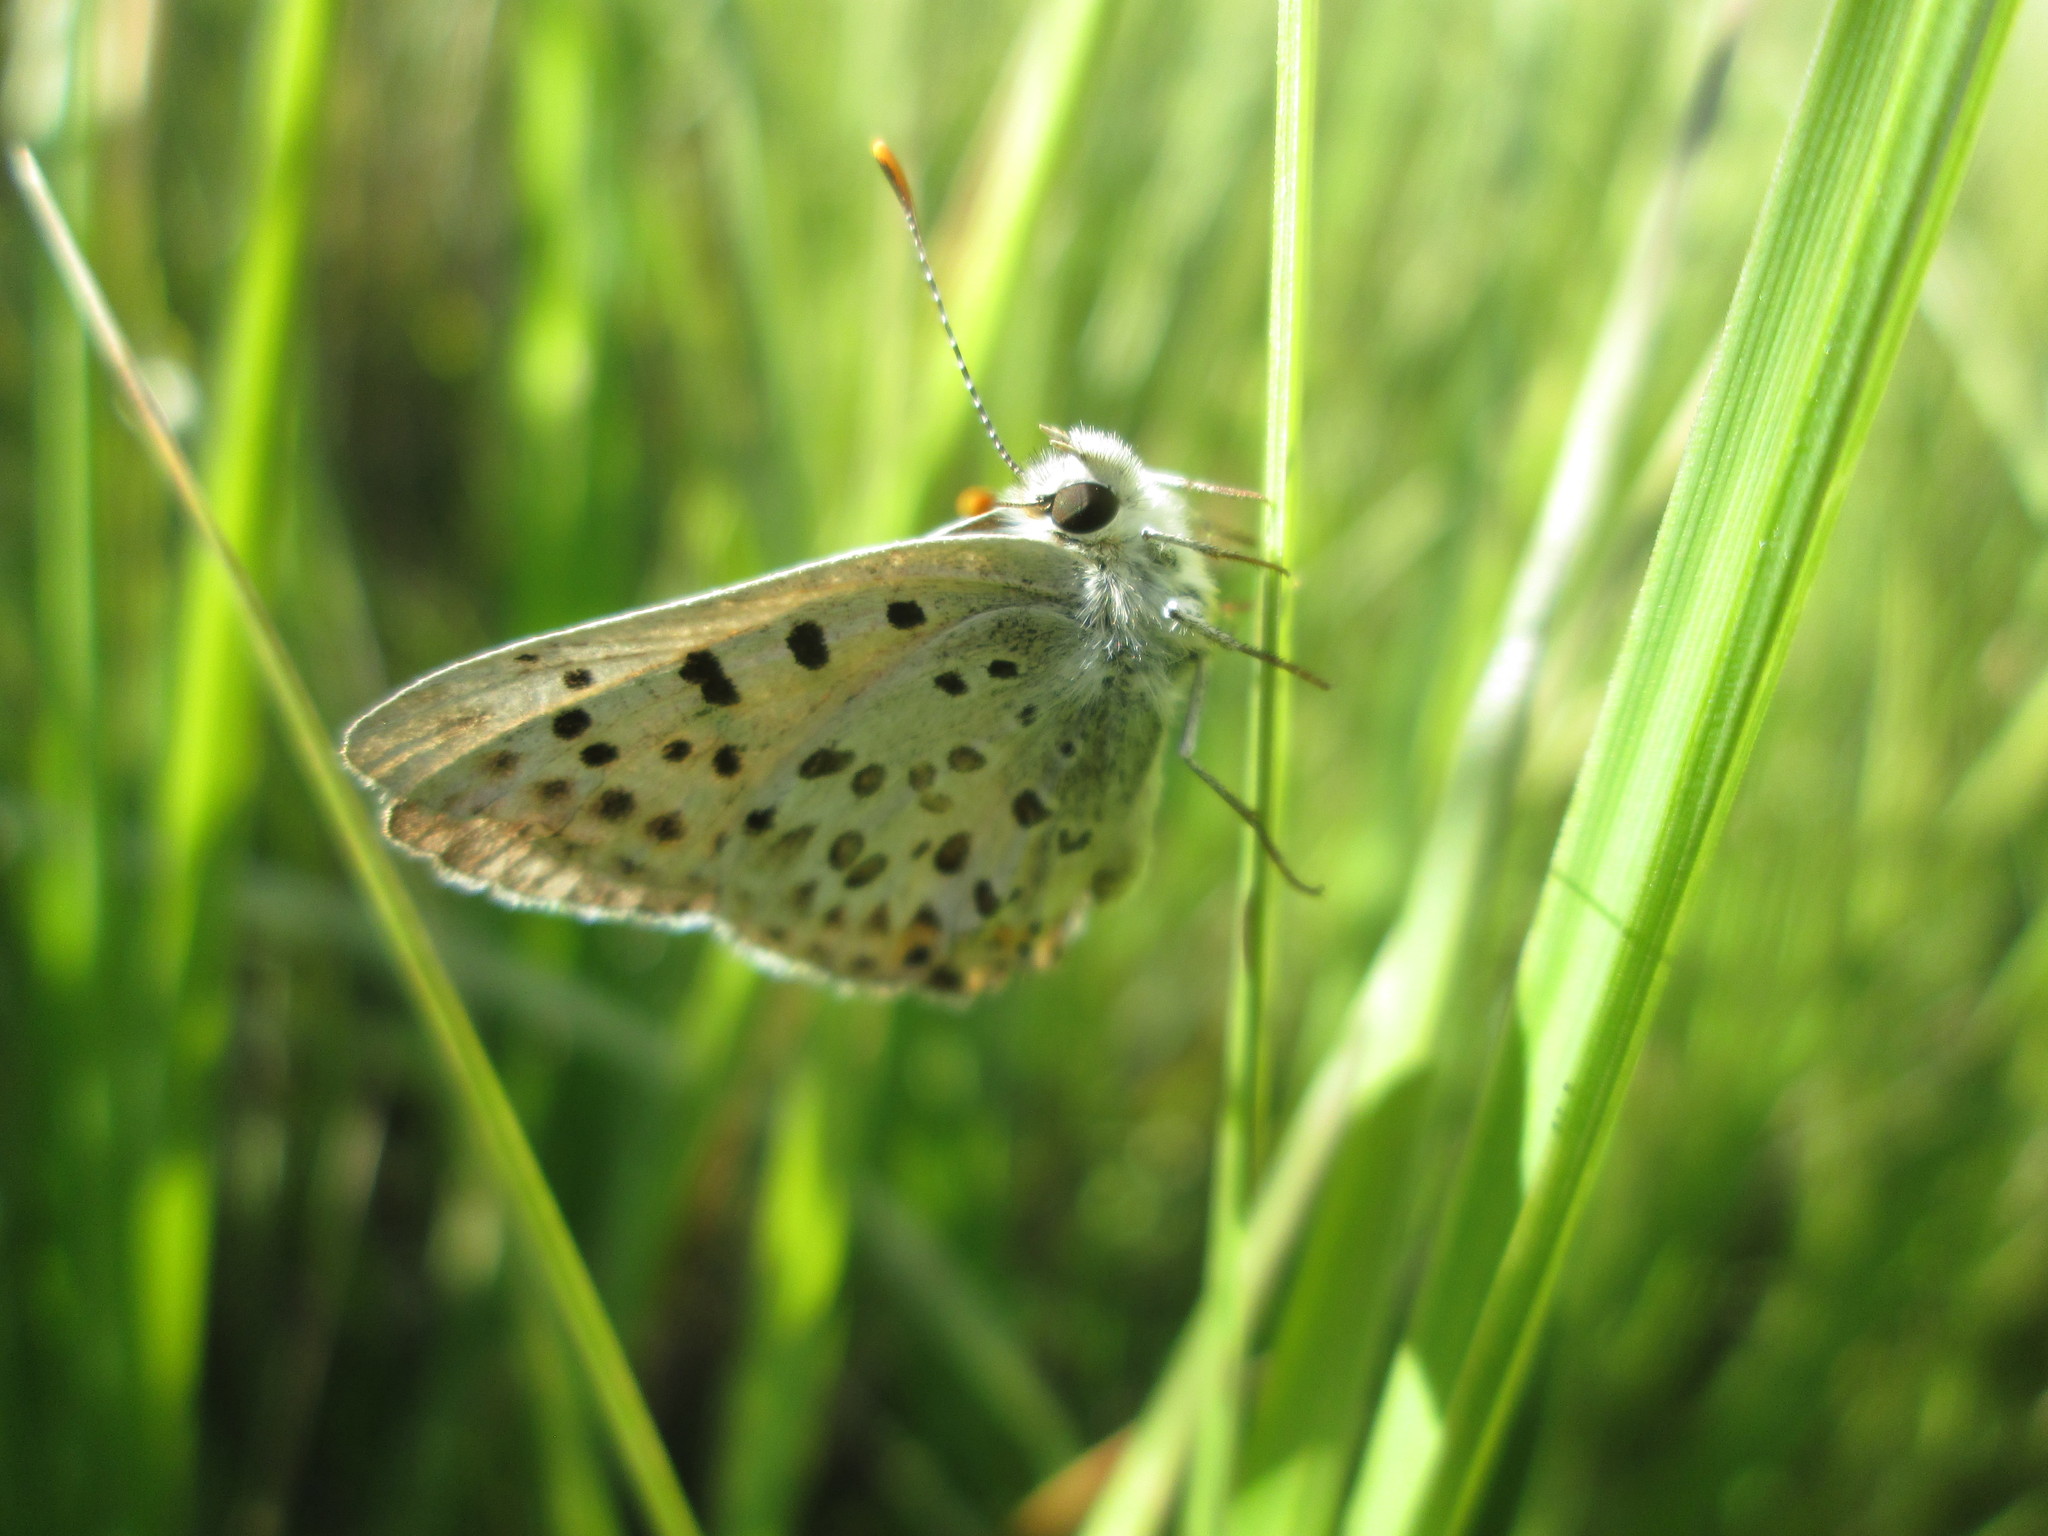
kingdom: Animalia
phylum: Arthropoda
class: Insecta
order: Lepidoptera
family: Lycaenidae
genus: Tharsalea
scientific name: Tharsalea editha
